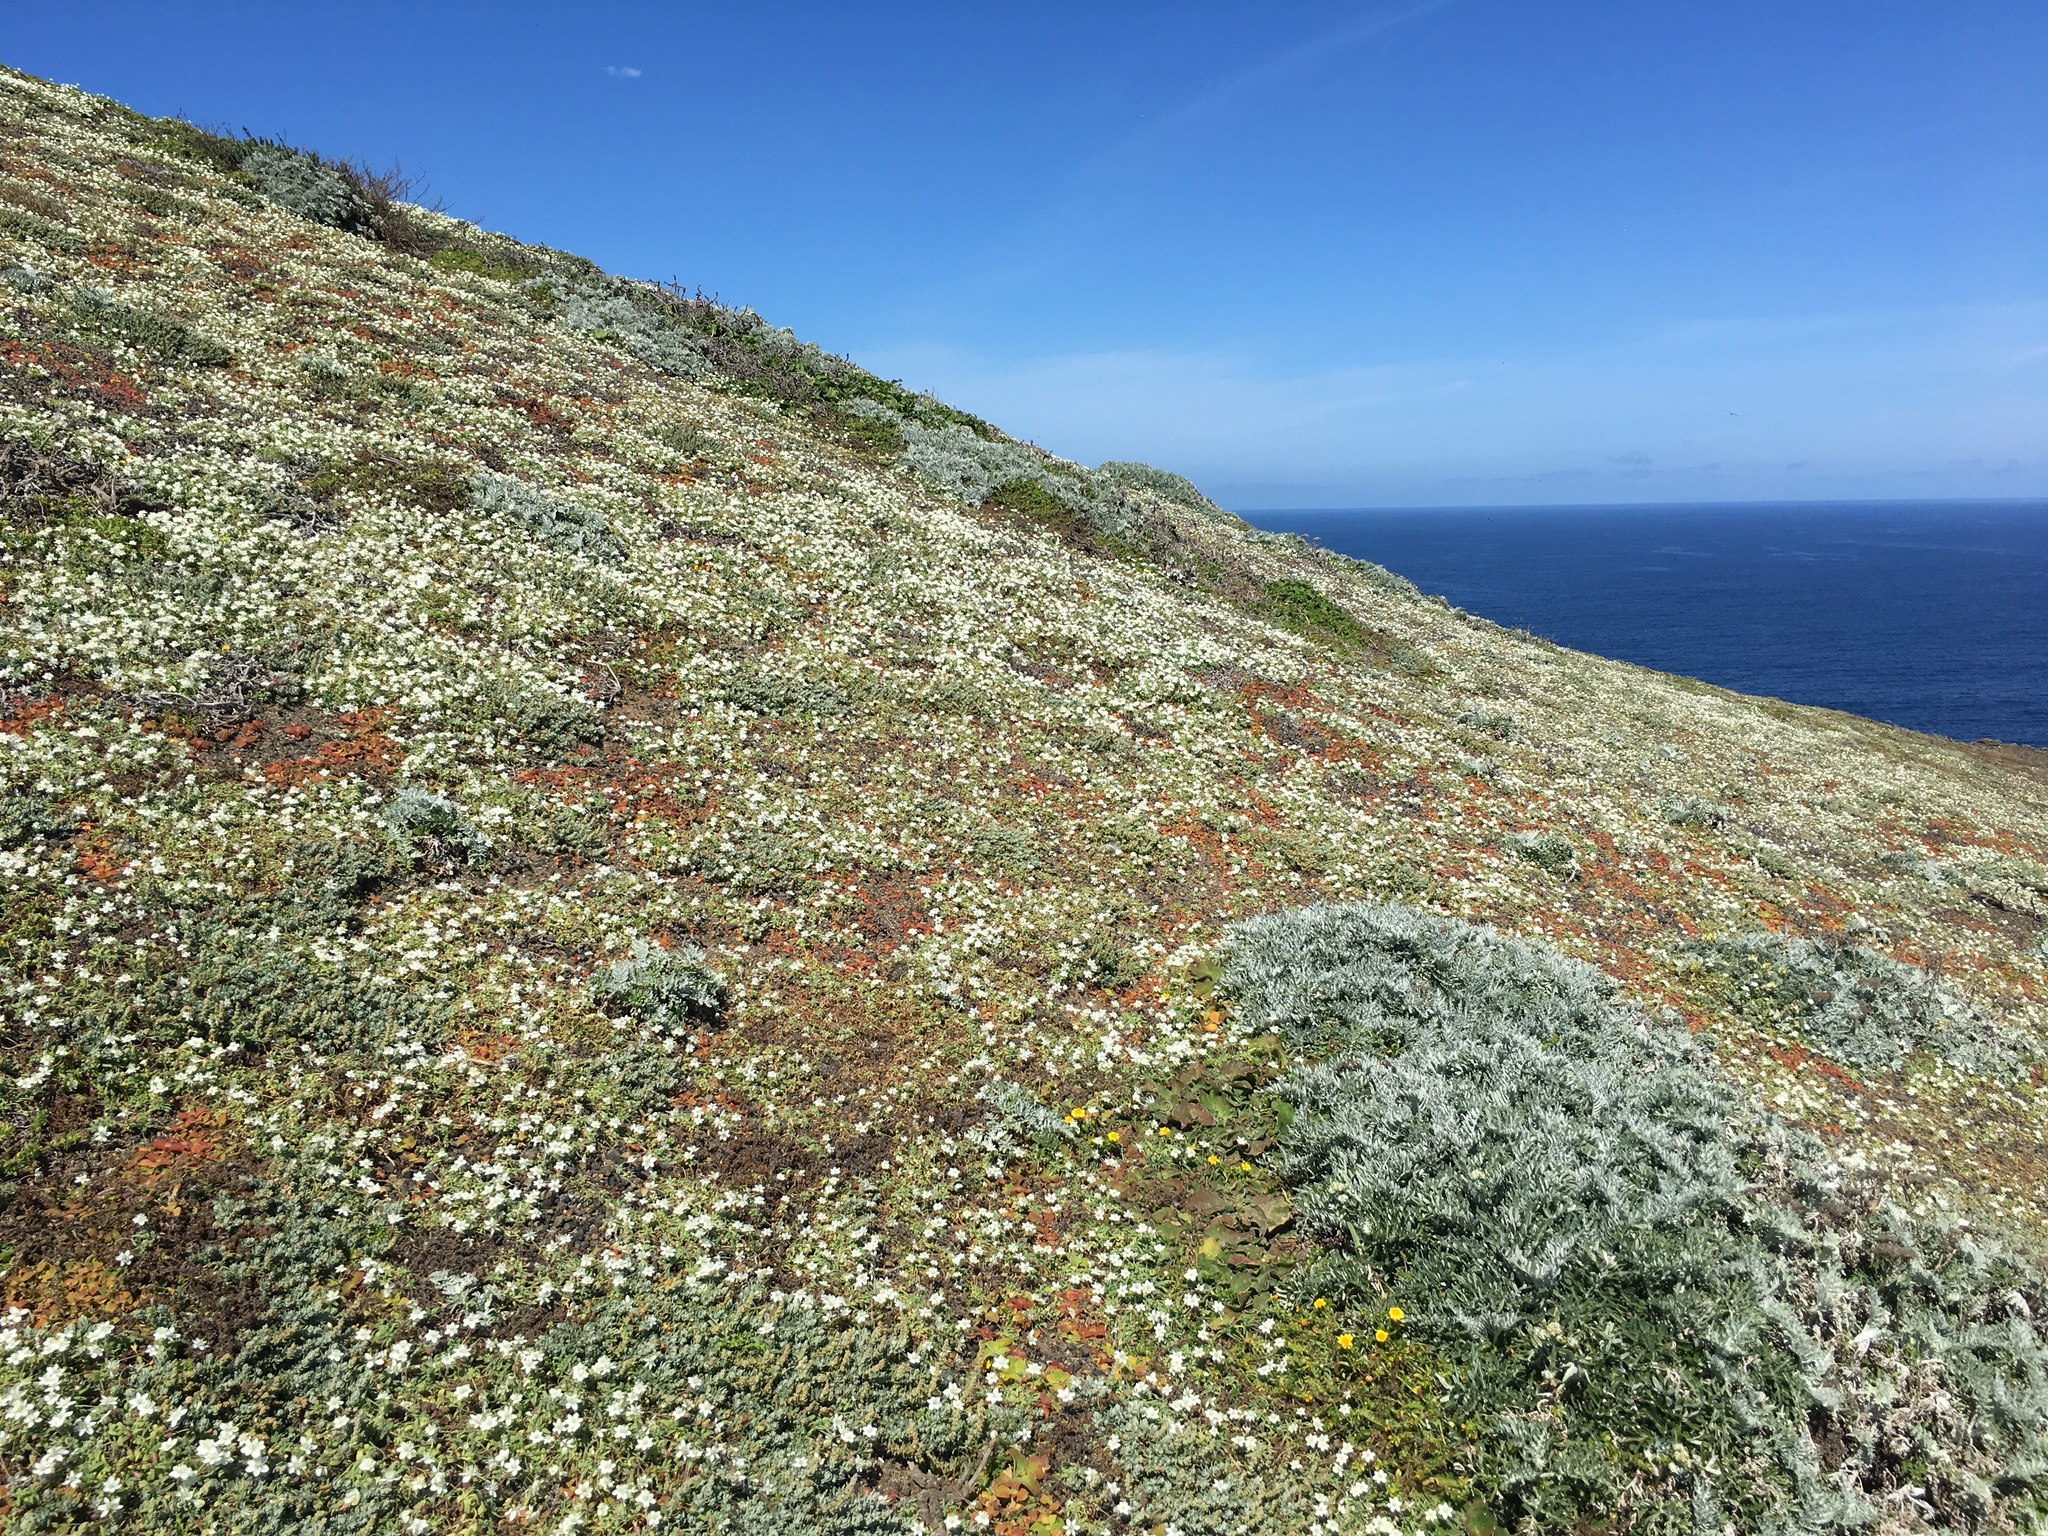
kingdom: Plantae
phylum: Tracheophyta
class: Magnoliopsida
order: Ranunculales
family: Papaveraceae
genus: Platystemon
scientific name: Platystemon californicus
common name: Cream-cups
